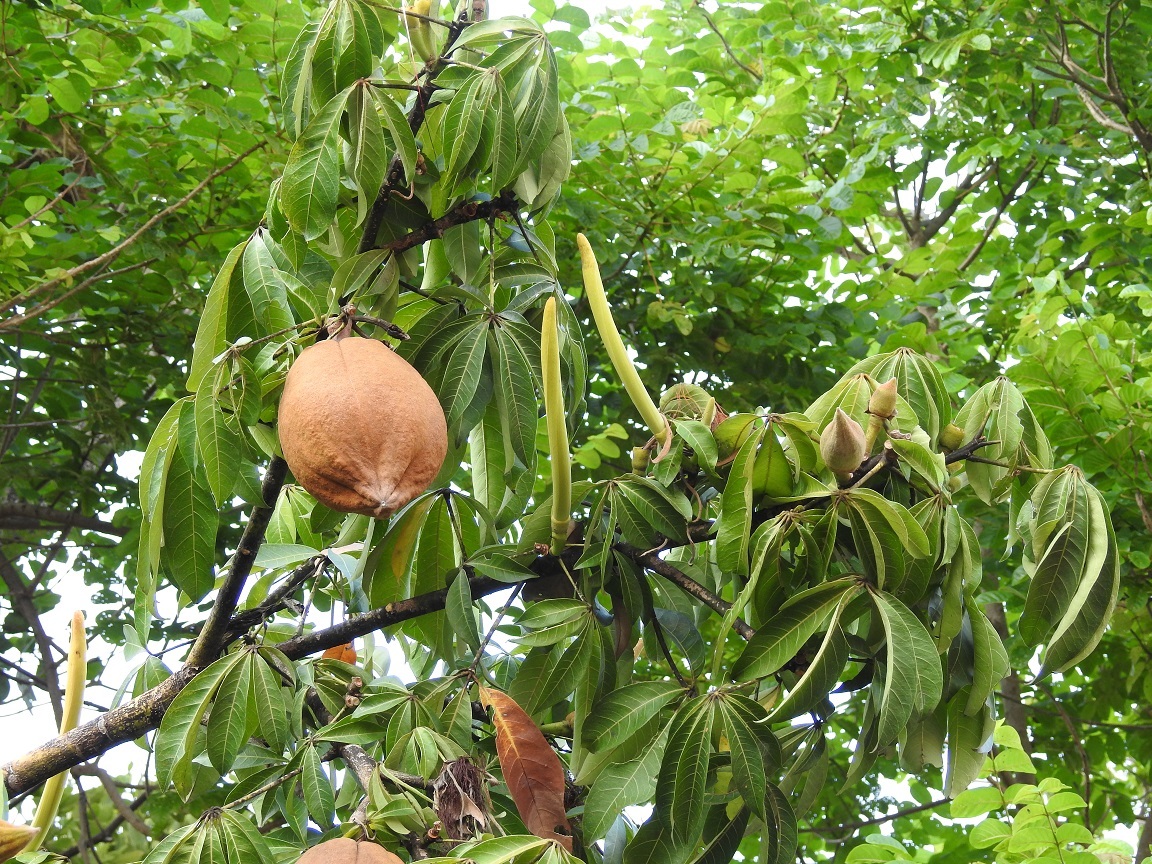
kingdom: Plantae
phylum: Tracheophyta
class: Magnoliopsida
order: Malvales
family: Malvaceae
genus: Pachira
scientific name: Pachira aquatica
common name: Provision-tree
